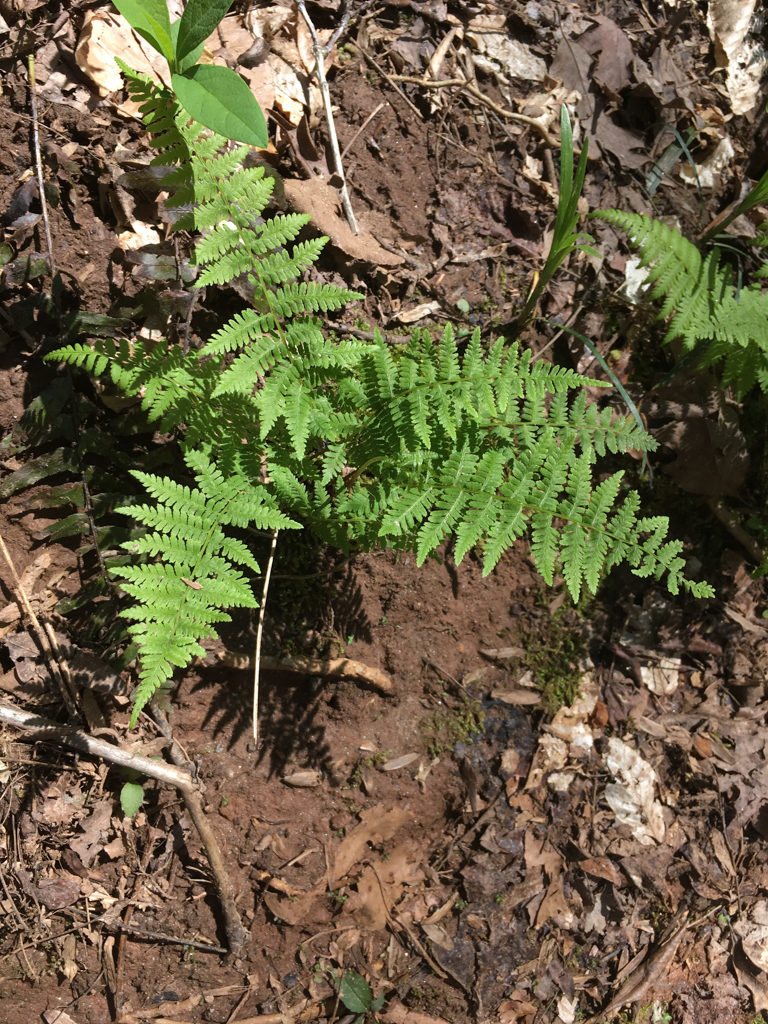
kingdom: Plantae
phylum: Tracheophyta
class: Polypodiopsida
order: Polypodiales
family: Athyriaceae
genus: Athyrium
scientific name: Athyrium asplenioides
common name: Southern lady fern
